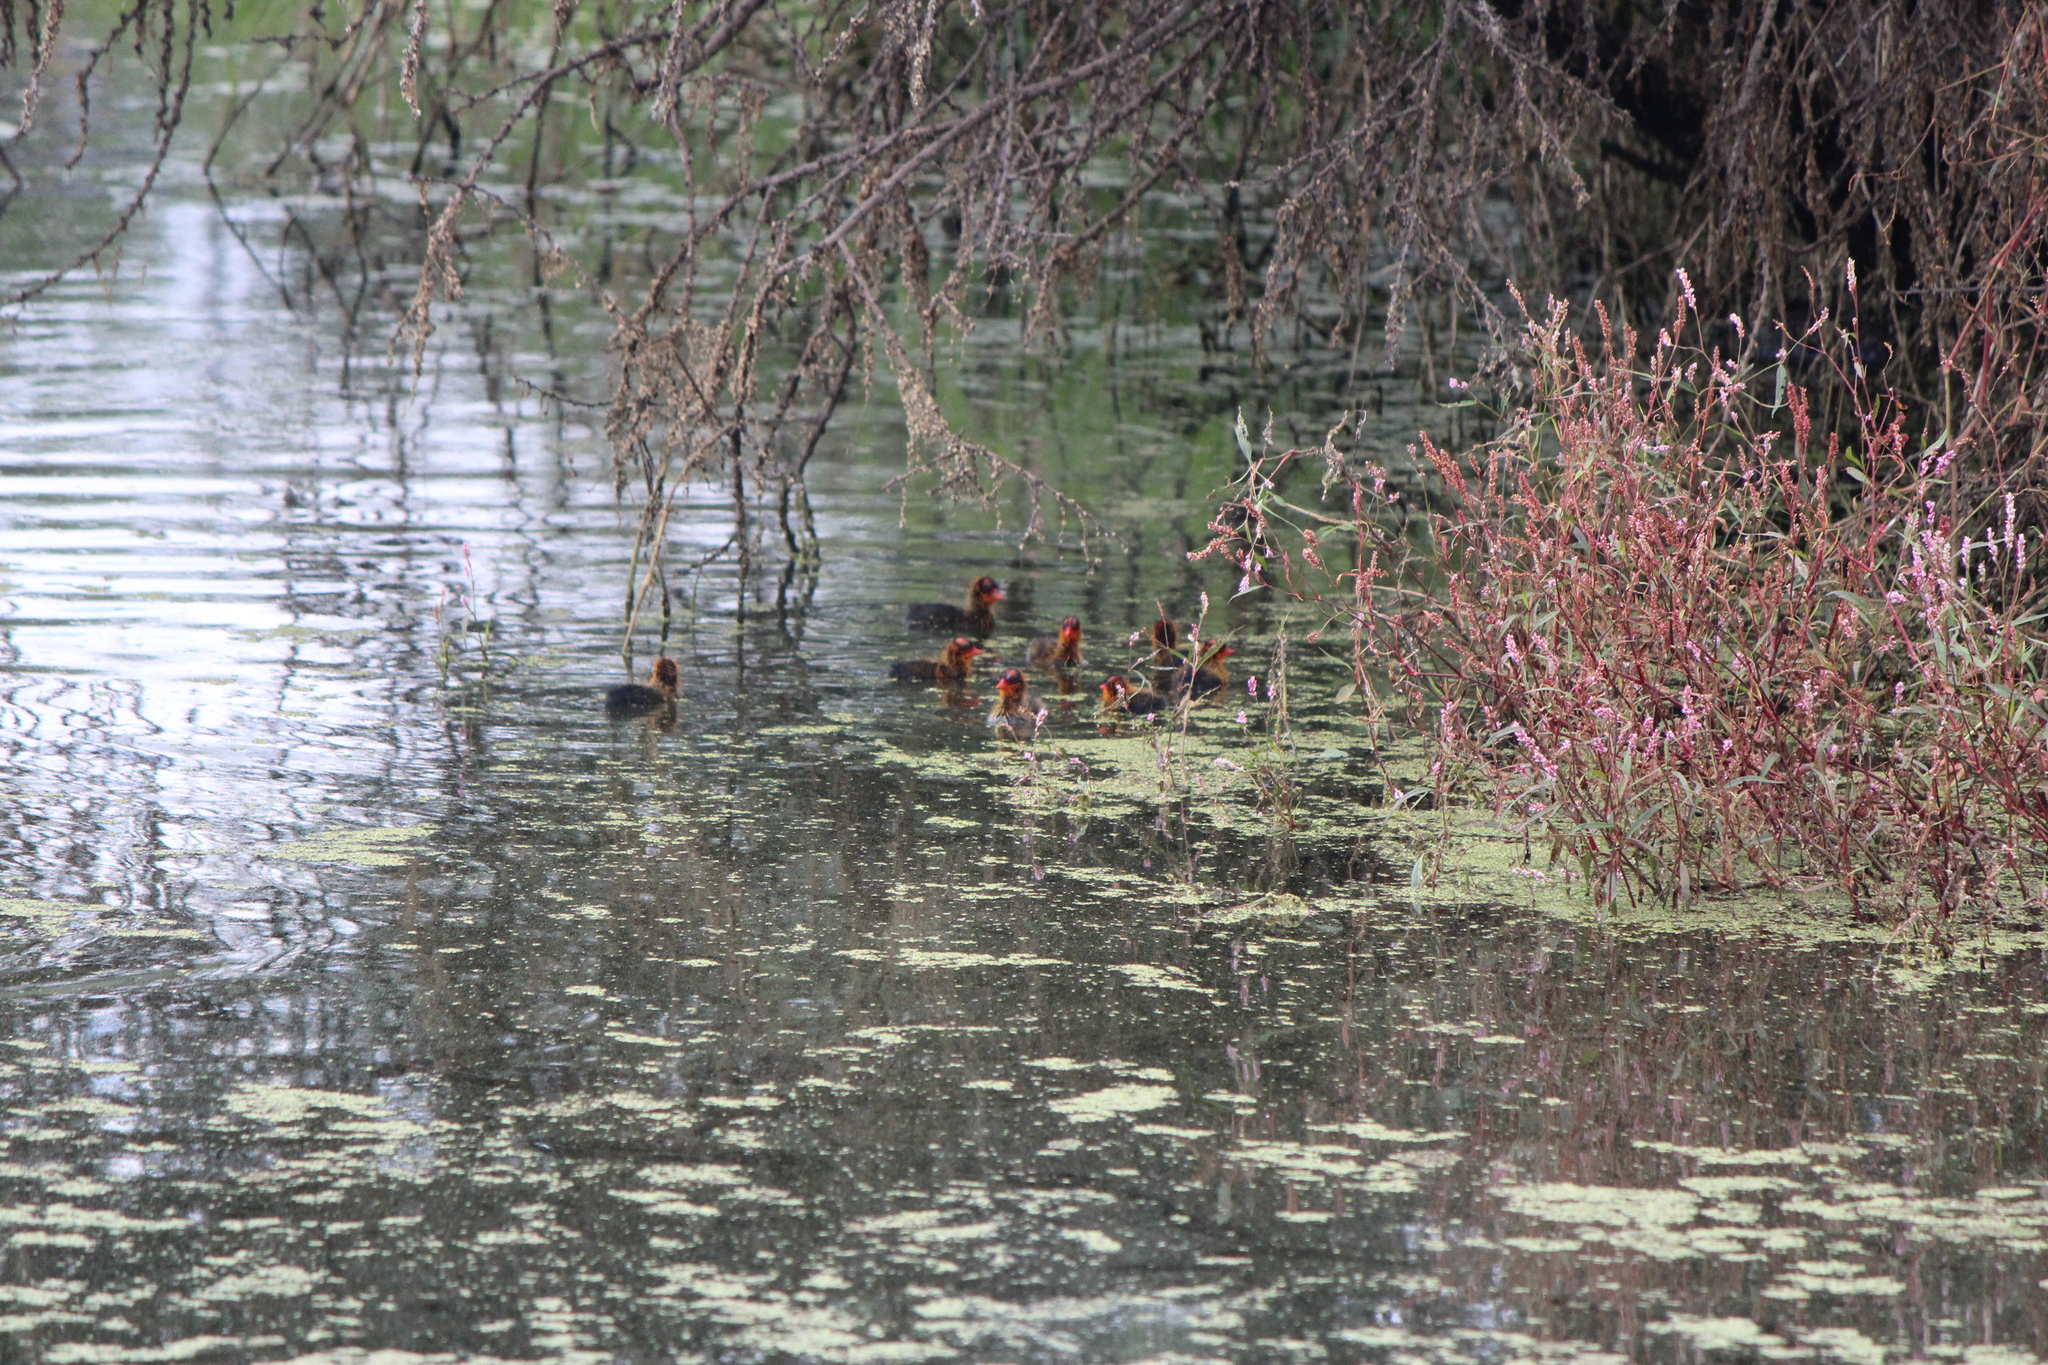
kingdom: Animalia
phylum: Chordata
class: Aves
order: Gruiformes
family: Rallidae
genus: Fulica
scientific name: Fulica americana
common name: American coot
